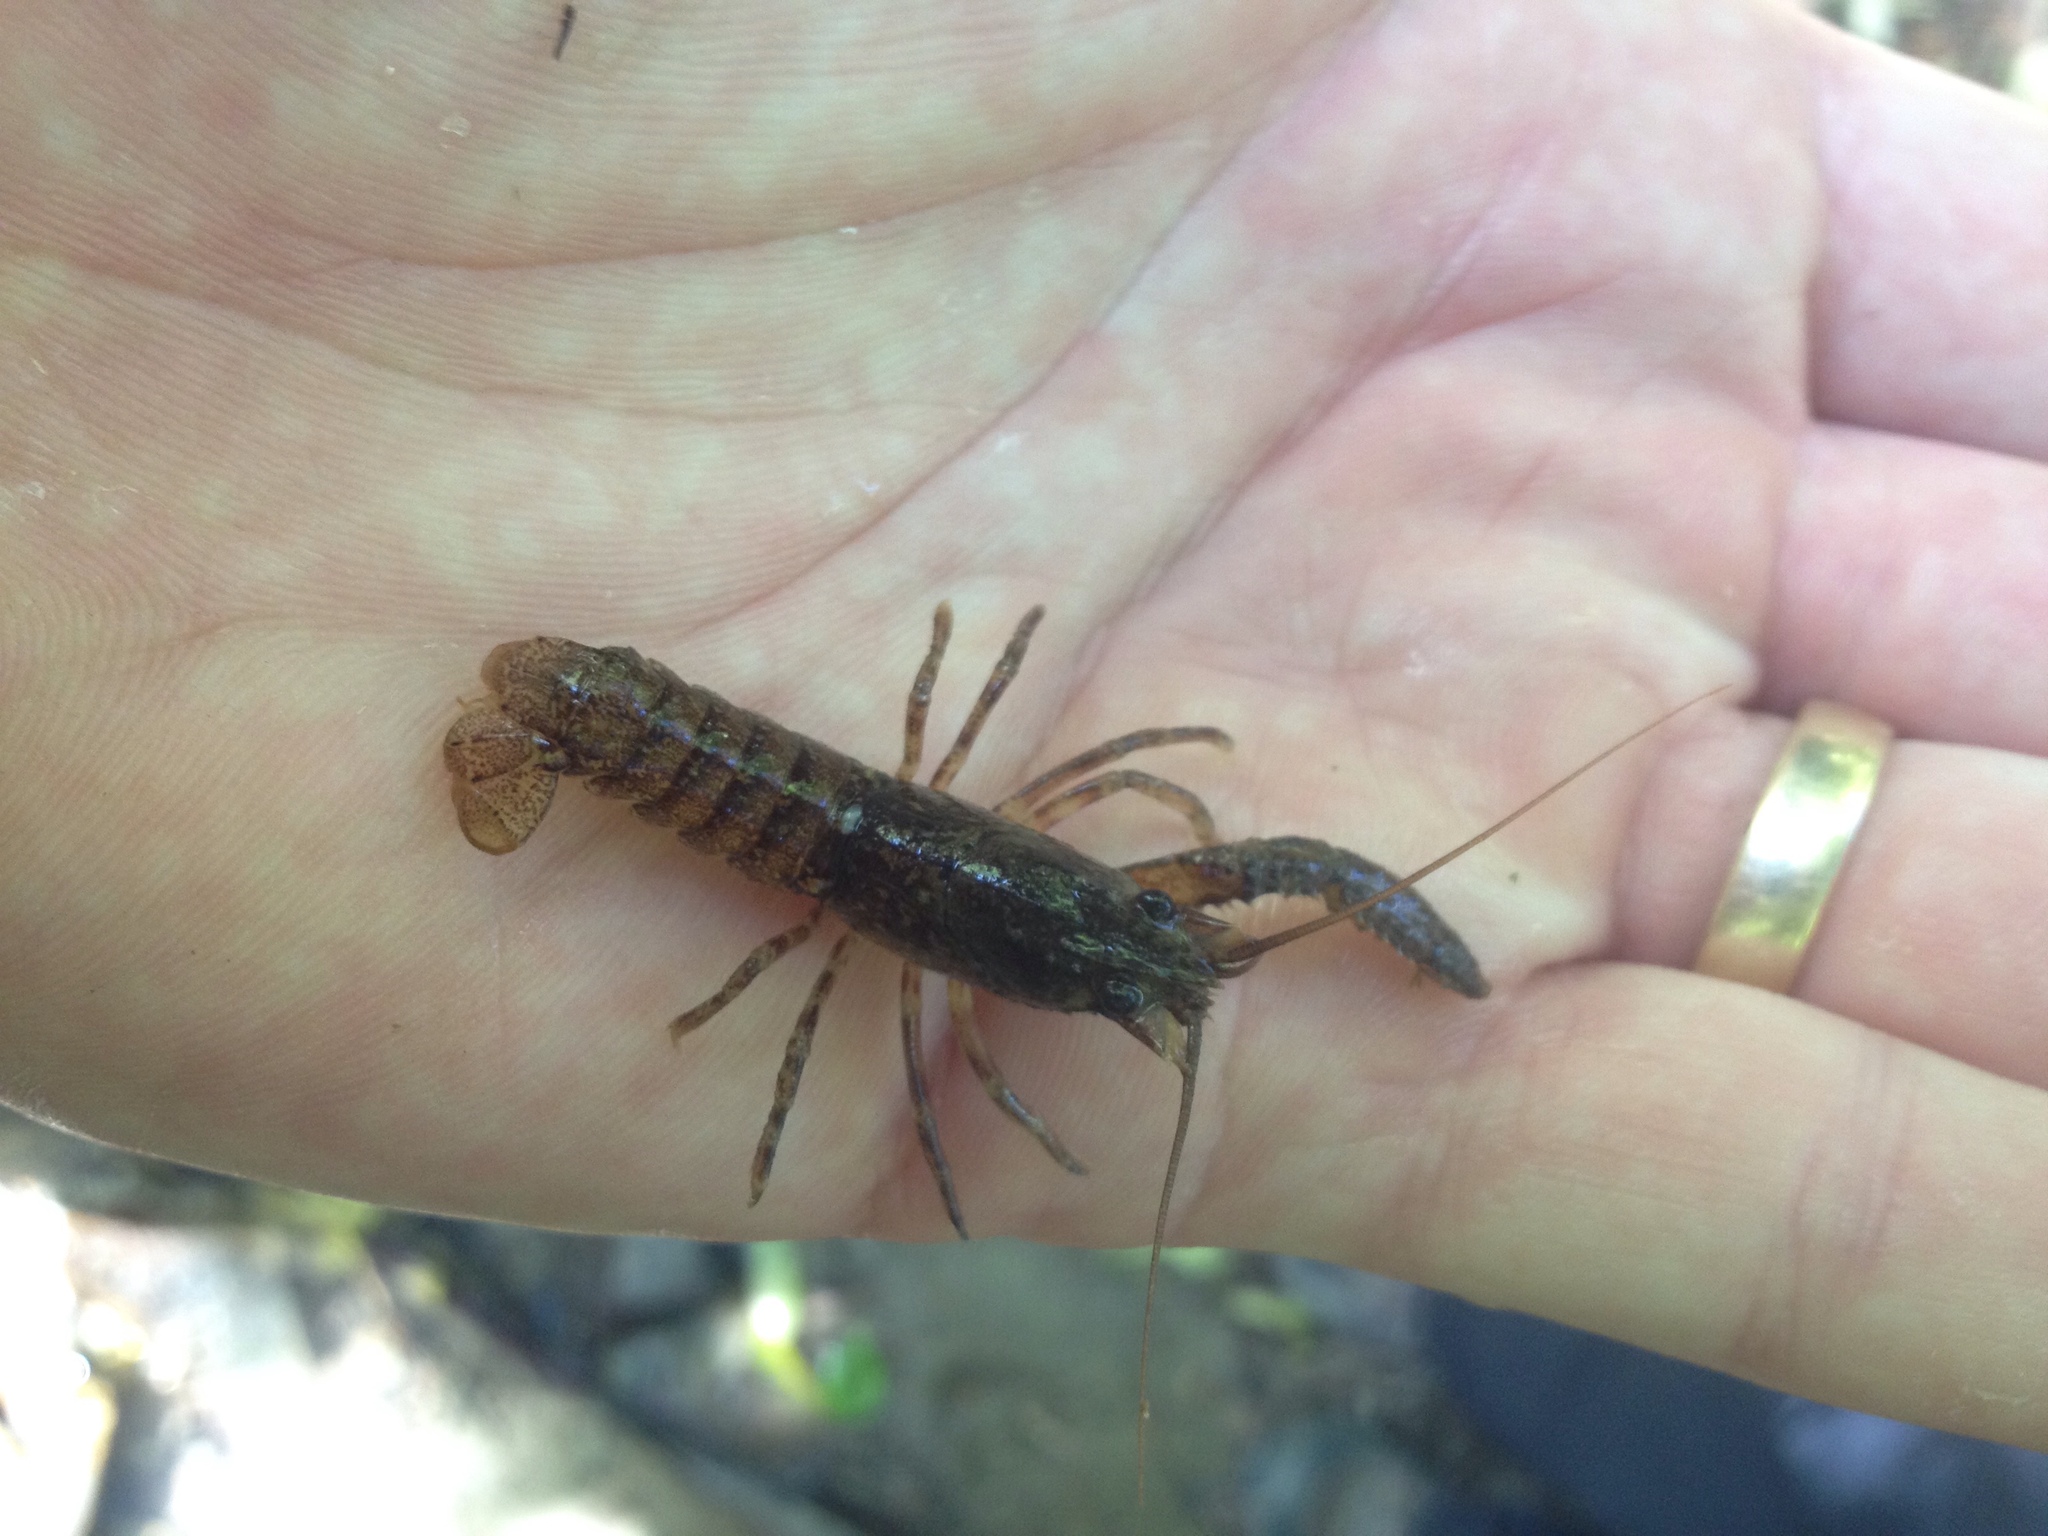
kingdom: Animalia
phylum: Arthropoda
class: Malacostraca
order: Decapoda
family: Parastacidae
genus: Paranephrops
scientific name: Paranephrops planifrons
